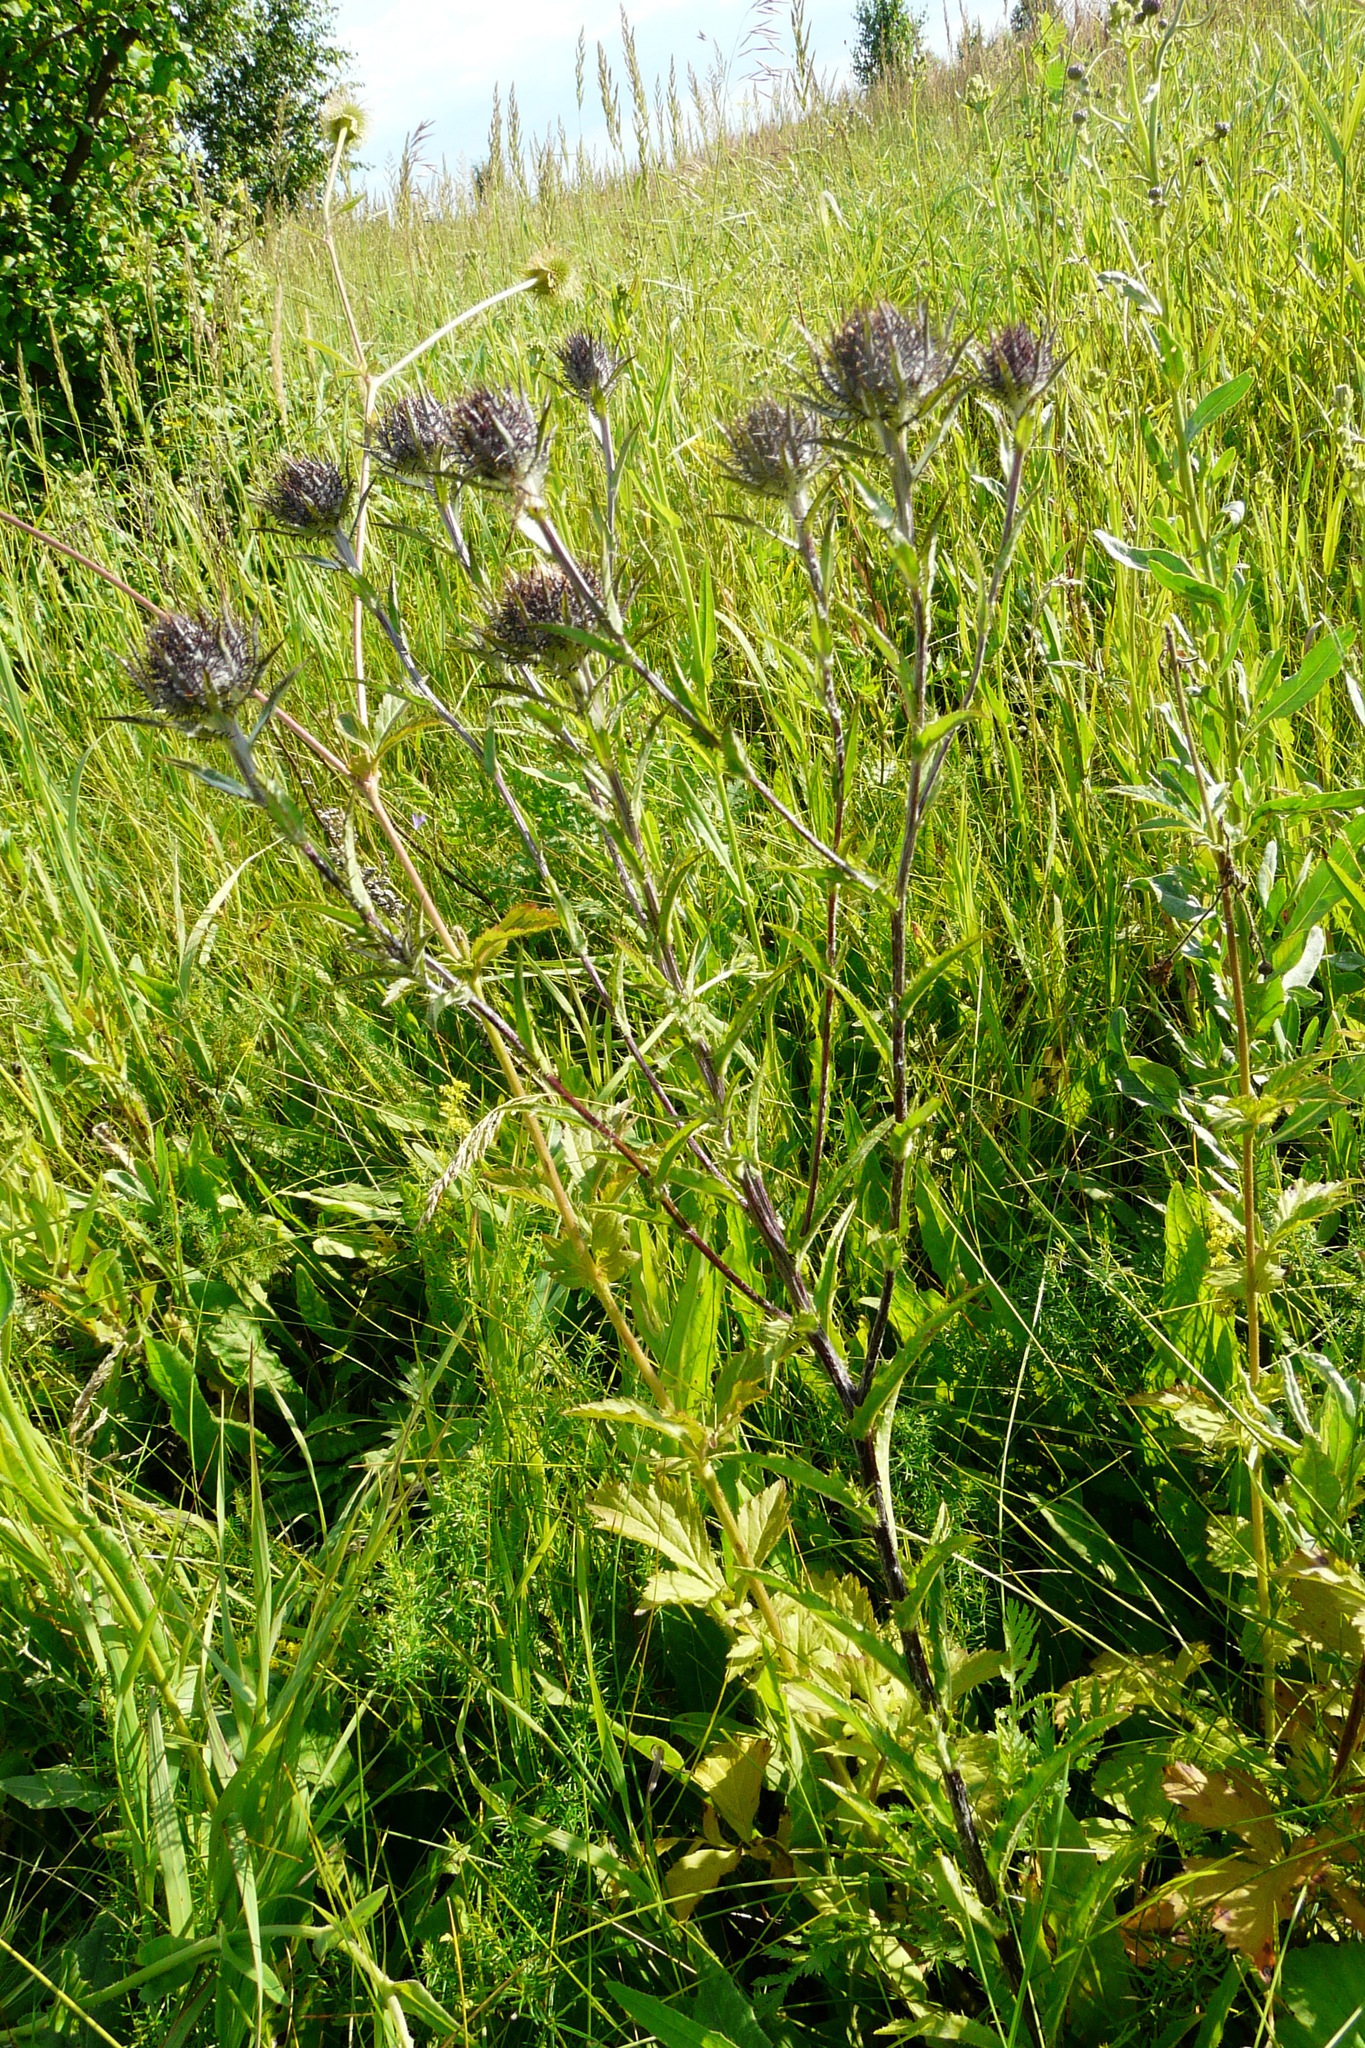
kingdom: Plantae
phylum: Tracheophyta
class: Magnoliopsida
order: Asterales
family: Asteraceae
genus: Carlina
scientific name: Carlina biebersteinii
